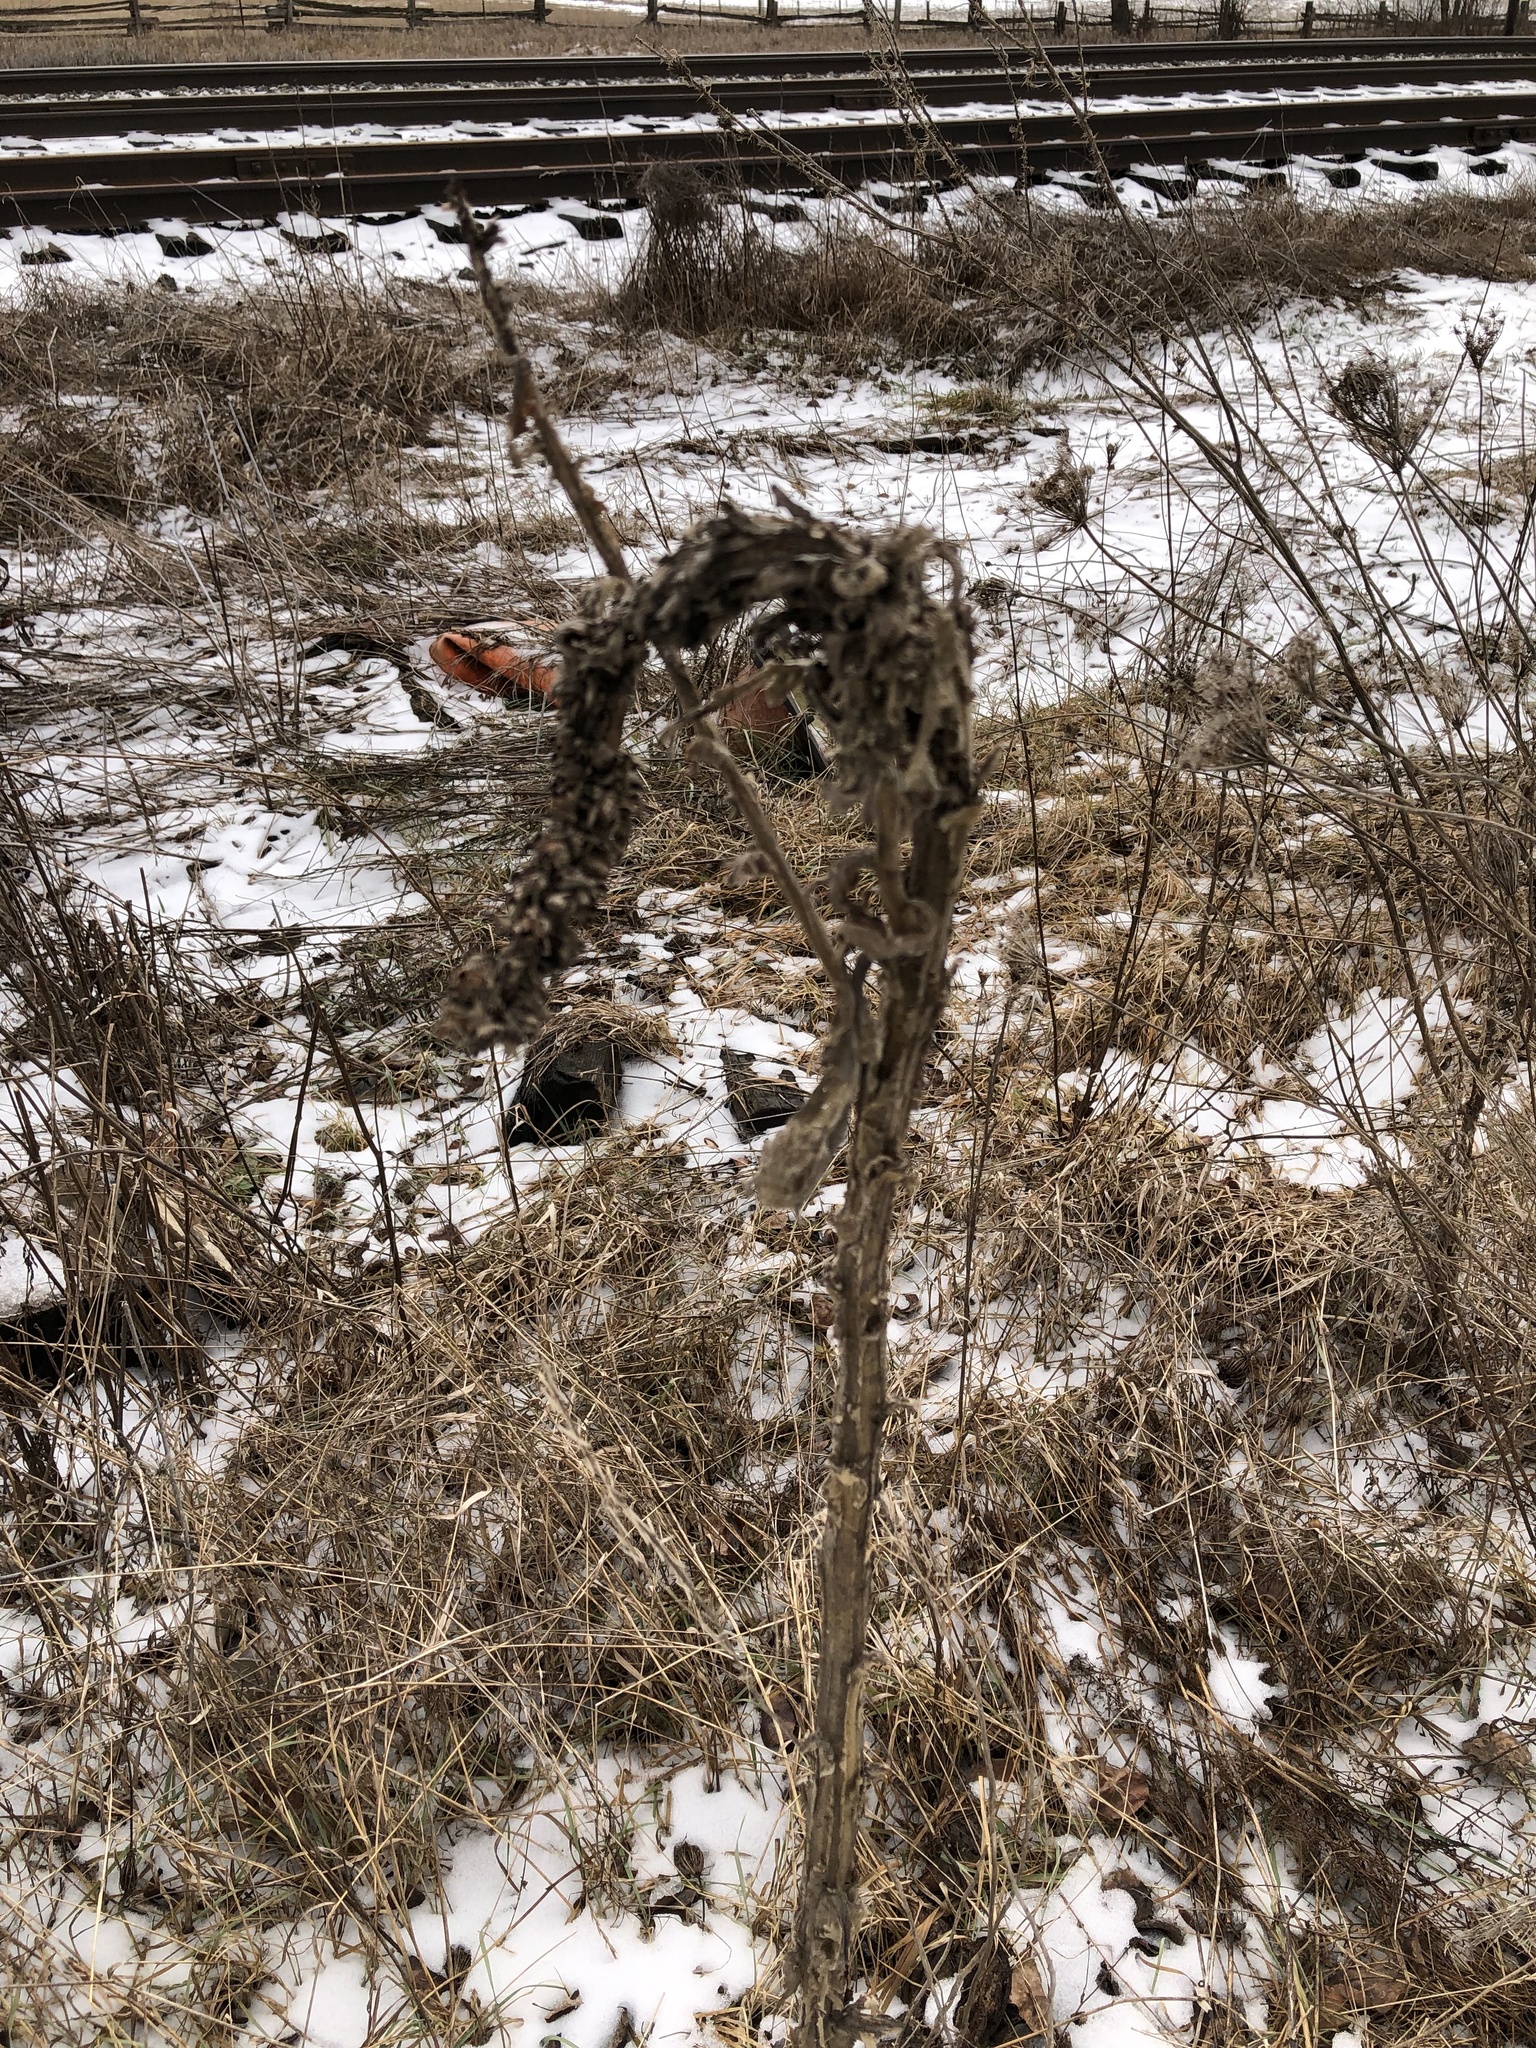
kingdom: Plantae
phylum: Tracheophyta
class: Magnoliopsida
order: Lamiales
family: Scrophulariaceae
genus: Verbascum
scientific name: Verbascum thapsus
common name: Common mullein
